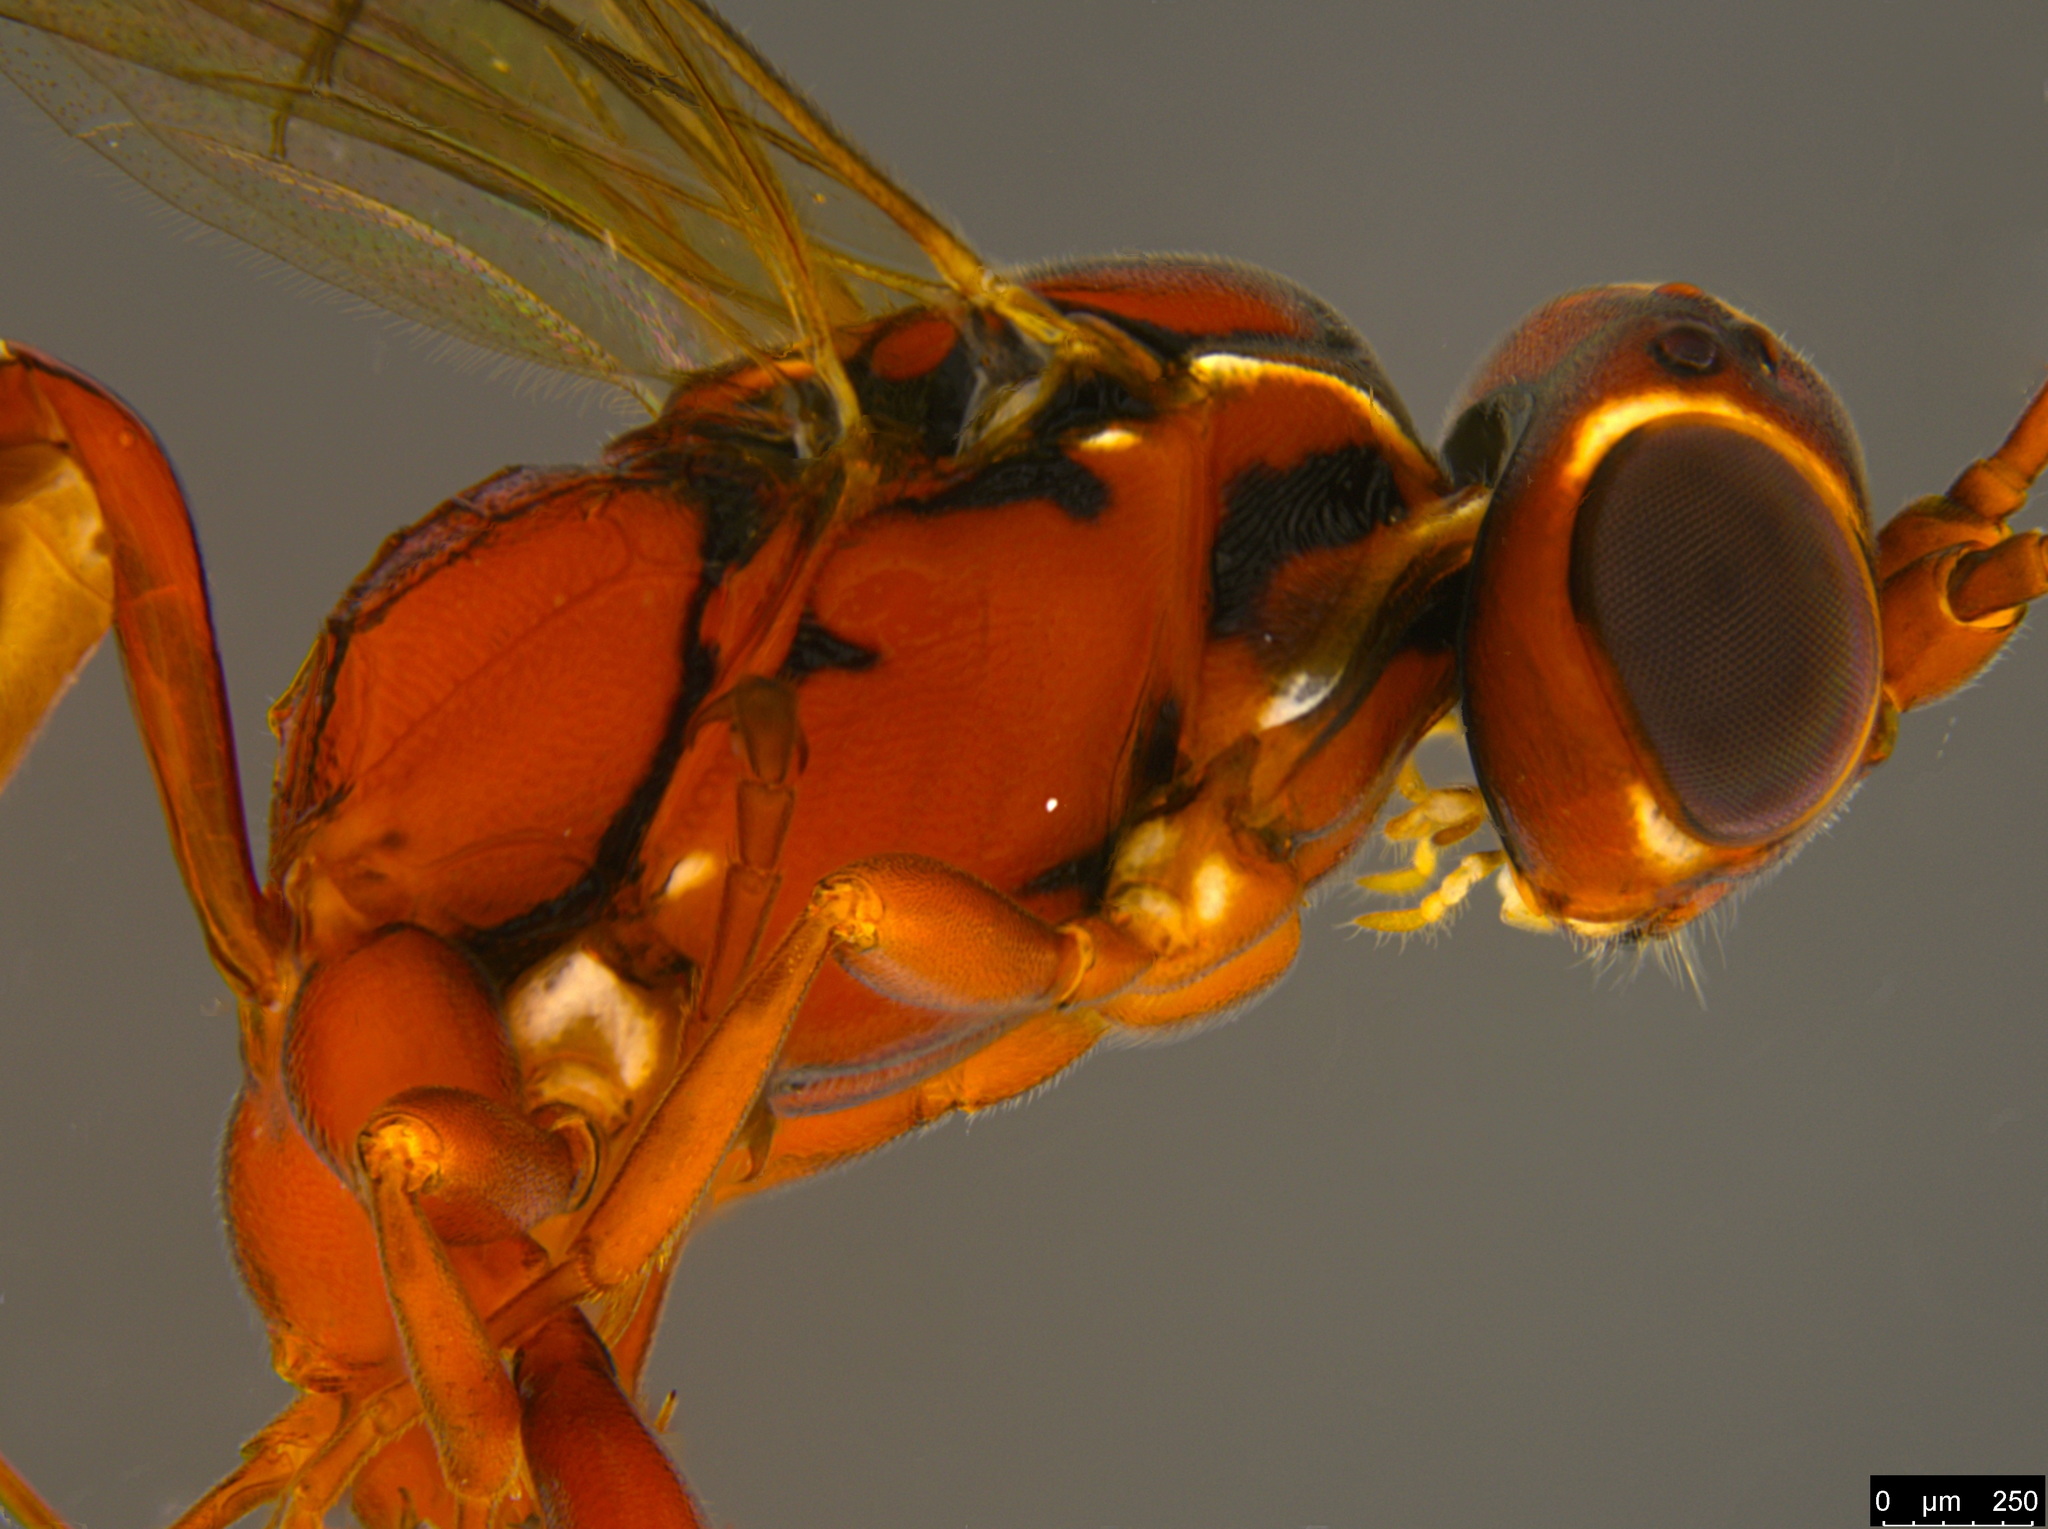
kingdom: Animalia
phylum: Arthropoda
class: Insecta
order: Hymenoptera
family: Ichneumonidae
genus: Akymichneumon
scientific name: Akymichneumon rufipes
